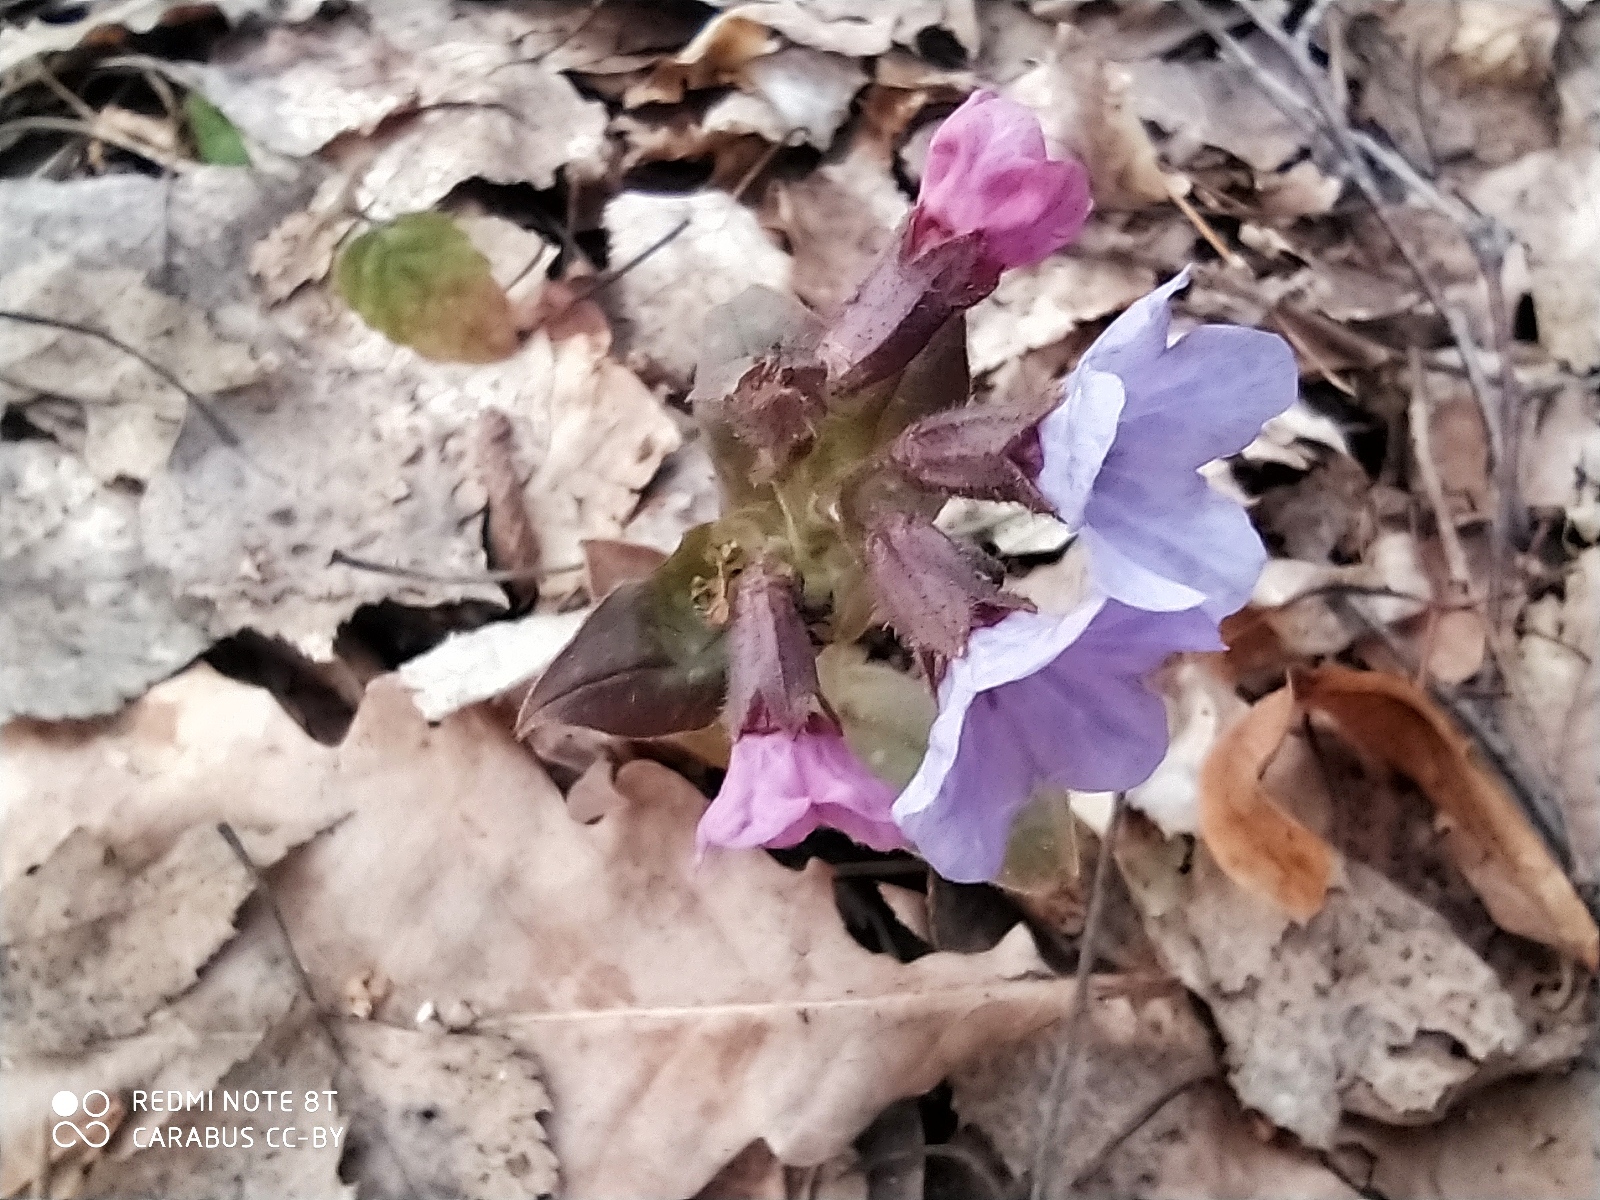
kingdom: Plantae
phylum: Tracheophyta
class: Magnoliopsida
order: Boraginales
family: Boraginaceae
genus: Pulmonaria
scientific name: Pulmonaria obscura
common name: Suffolk lungwort
